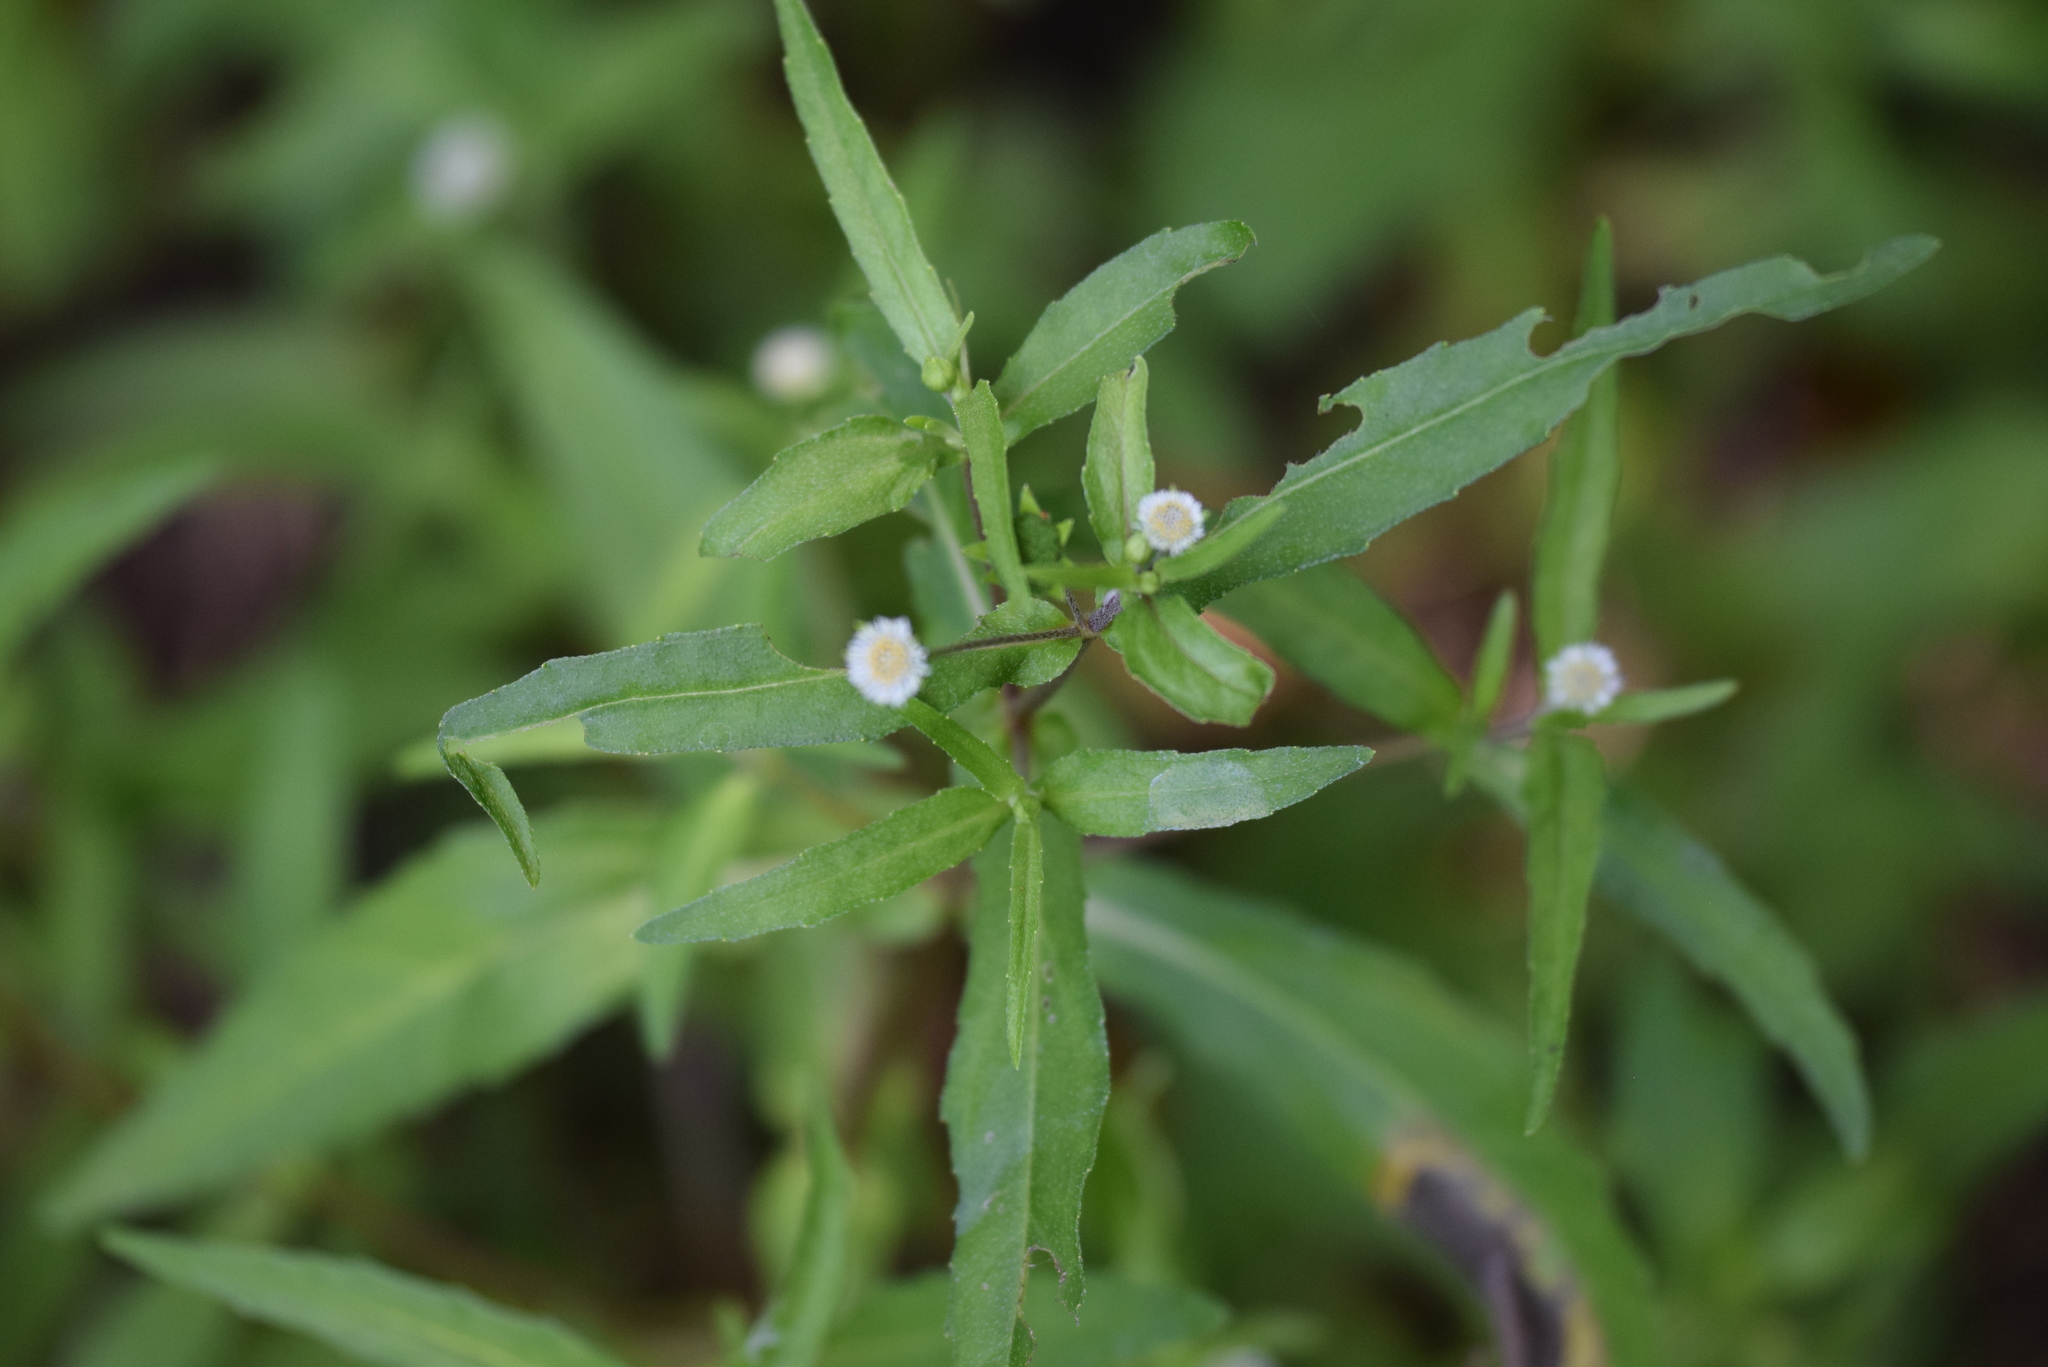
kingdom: Plantae
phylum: Tracheophyta
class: Magnoliopsida
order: Asterales
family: Asteraceae
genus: Eclipta
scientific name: Eclipta prostrata
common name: False daisy
